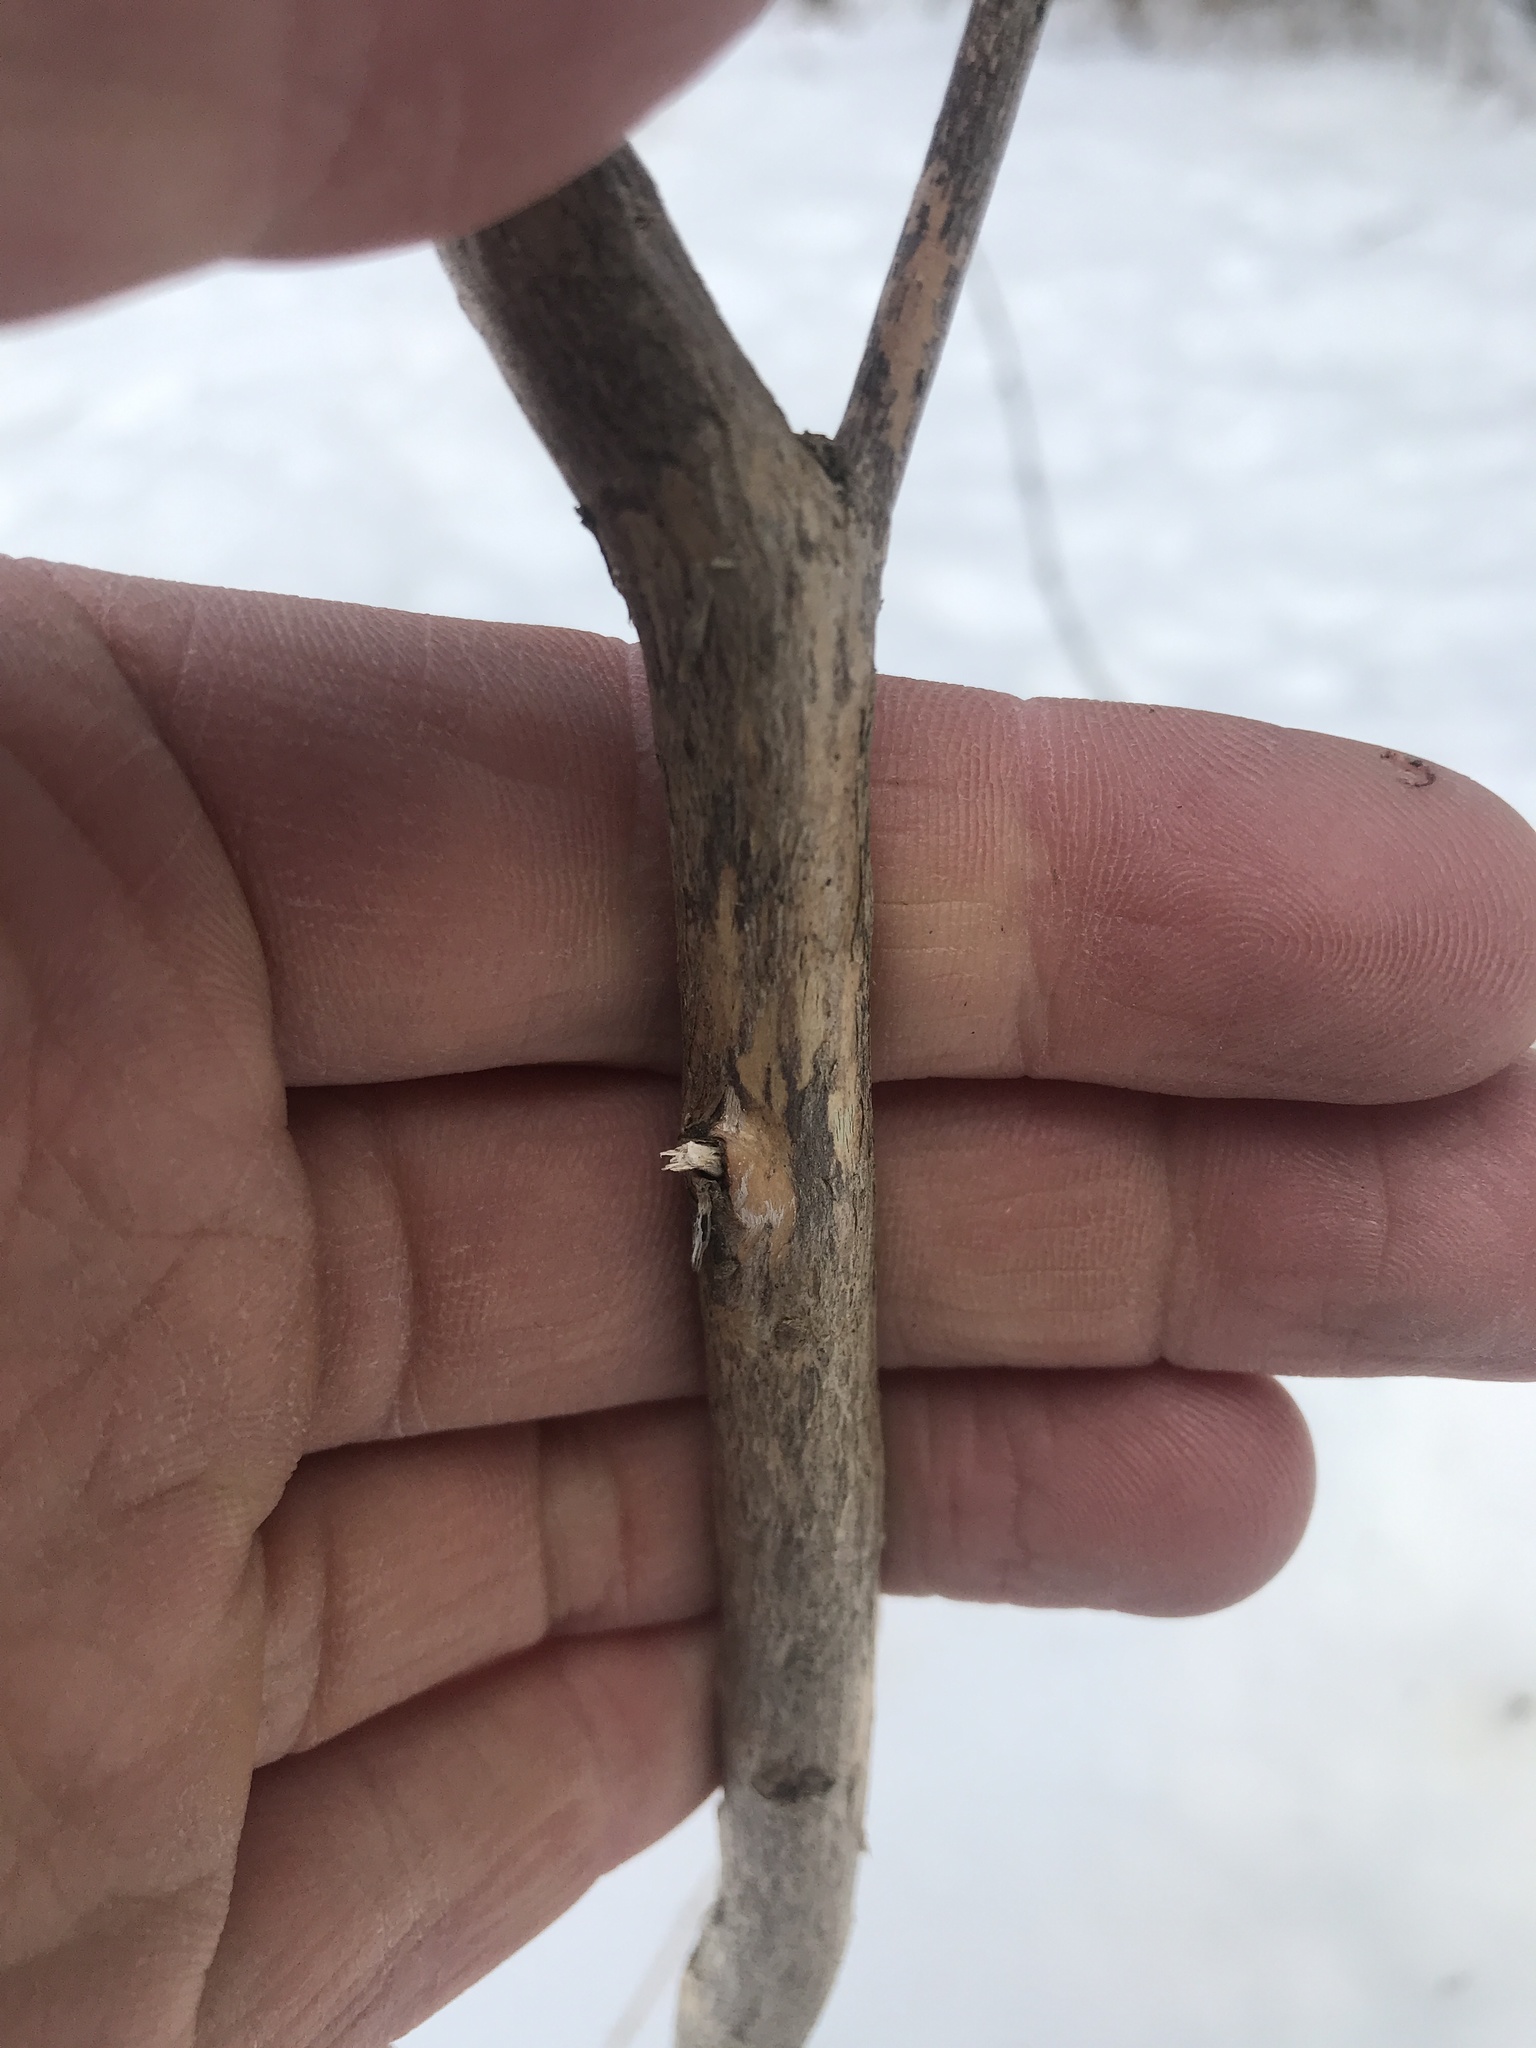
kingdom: Plantae
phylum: Tracheophyta
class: Magnoliopsida
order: Ericales
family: Ericaceae
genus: Lyonia
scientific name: Lyonia ligustrina
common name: Maleberry
